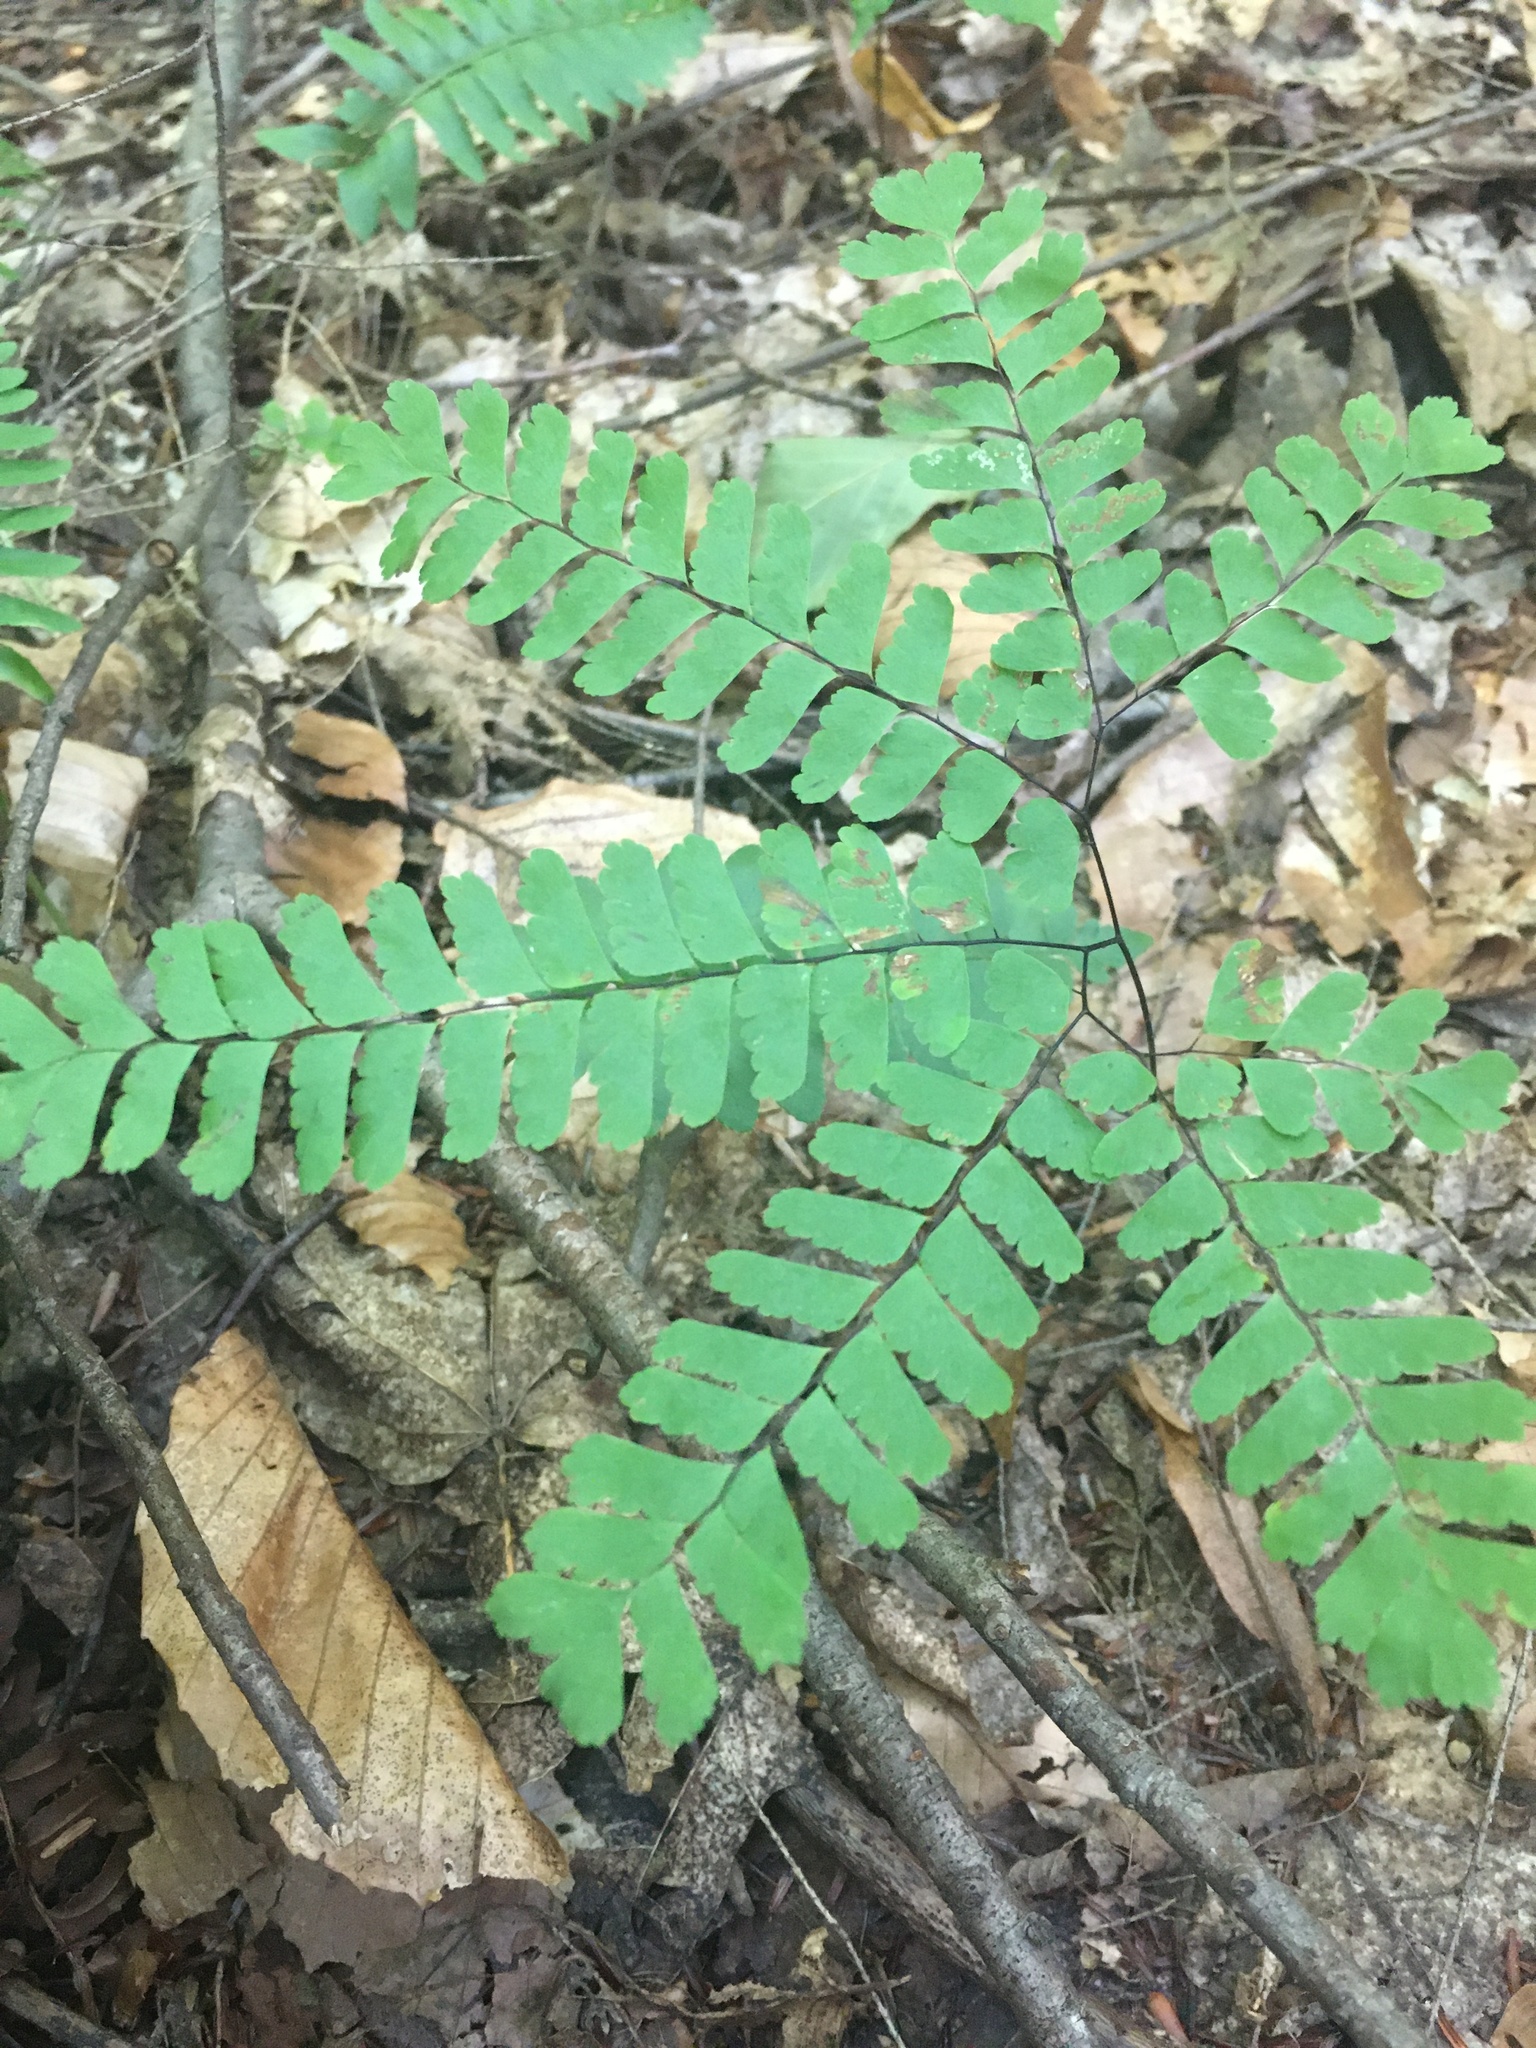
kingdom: Plantae
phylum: Tracheophyta
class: Polypodiopsida
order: Polypodiales
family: Pteridaceae
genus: Adiantum
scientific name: Adiantum pedatum
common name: Five-finger fern
